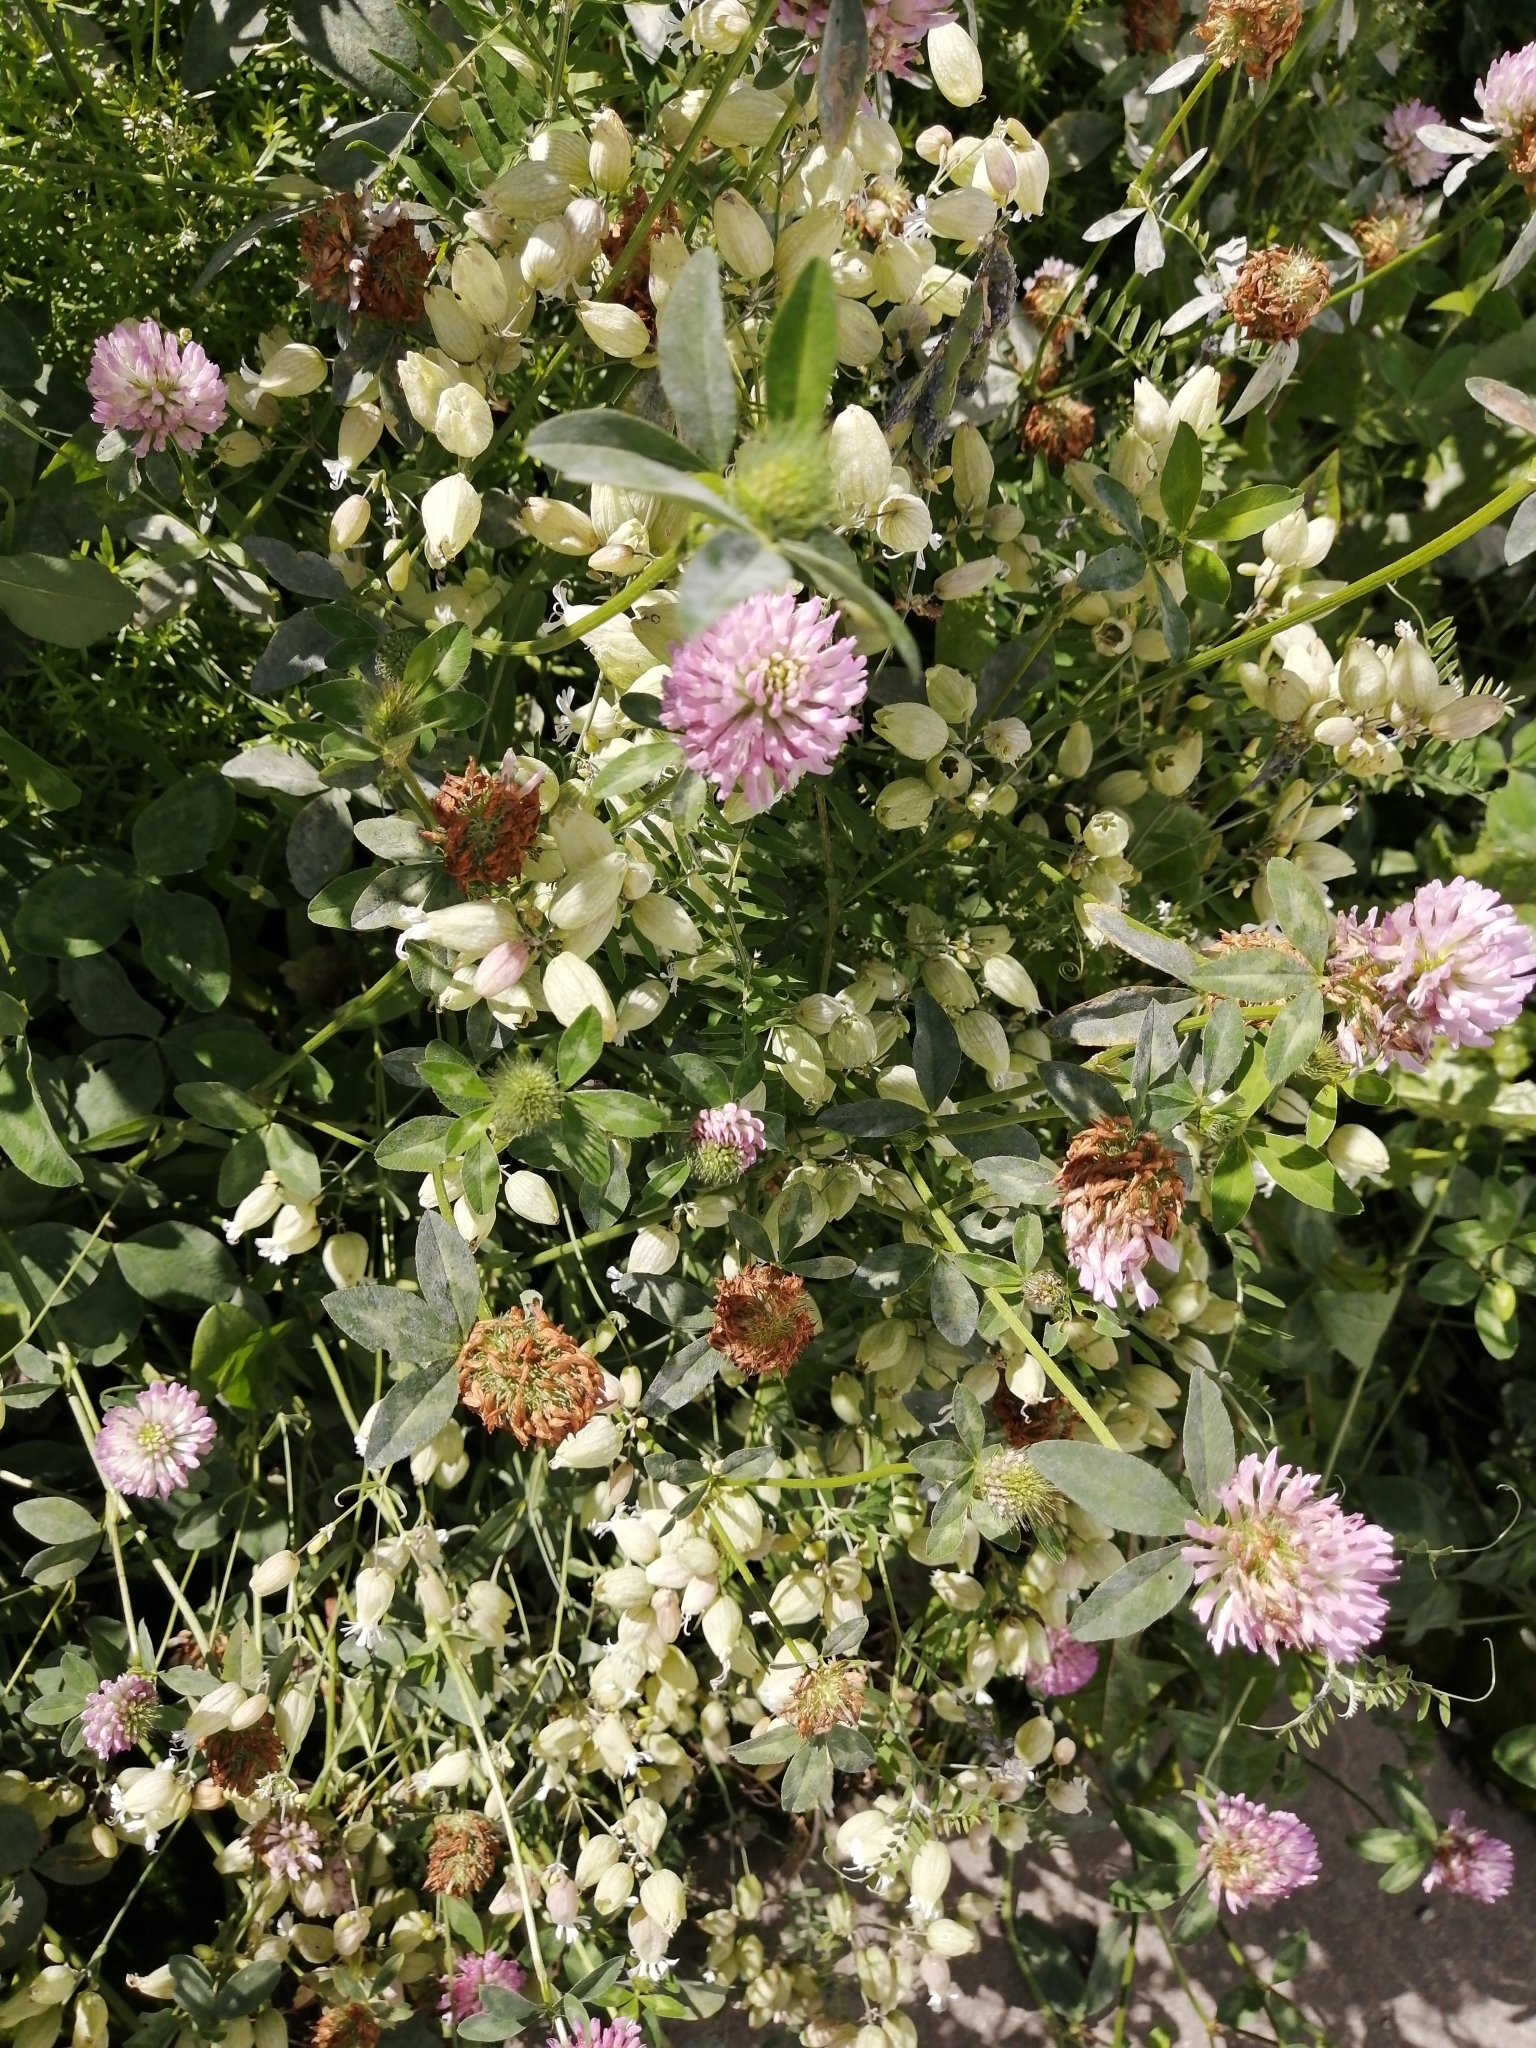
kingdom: Plantae
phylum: Tracheophyta
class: Magnoliopsida
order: Caryophyllales
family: Caryophyllaceae
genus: Silene
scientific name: Silene vulgaris
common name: Bladder campion
